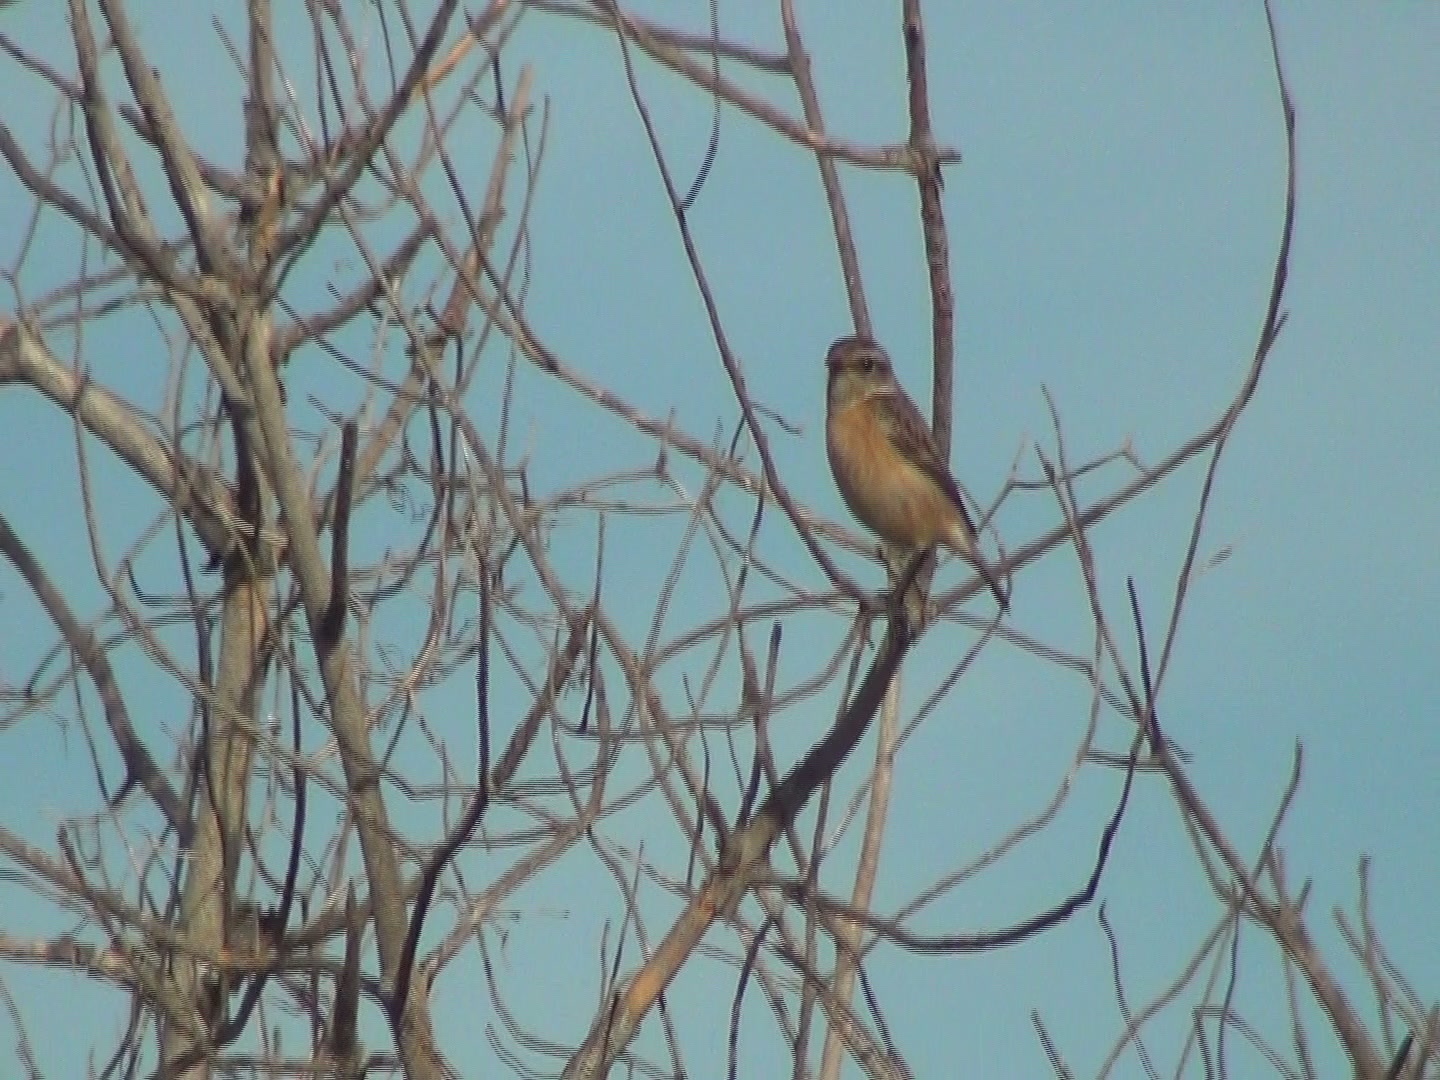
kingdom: Animalia
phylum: Chordata
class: Aves
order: Passeriformes
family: Muscicapidae
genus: Saxicola
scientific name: Saxicola rubicola
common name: European stonechat
